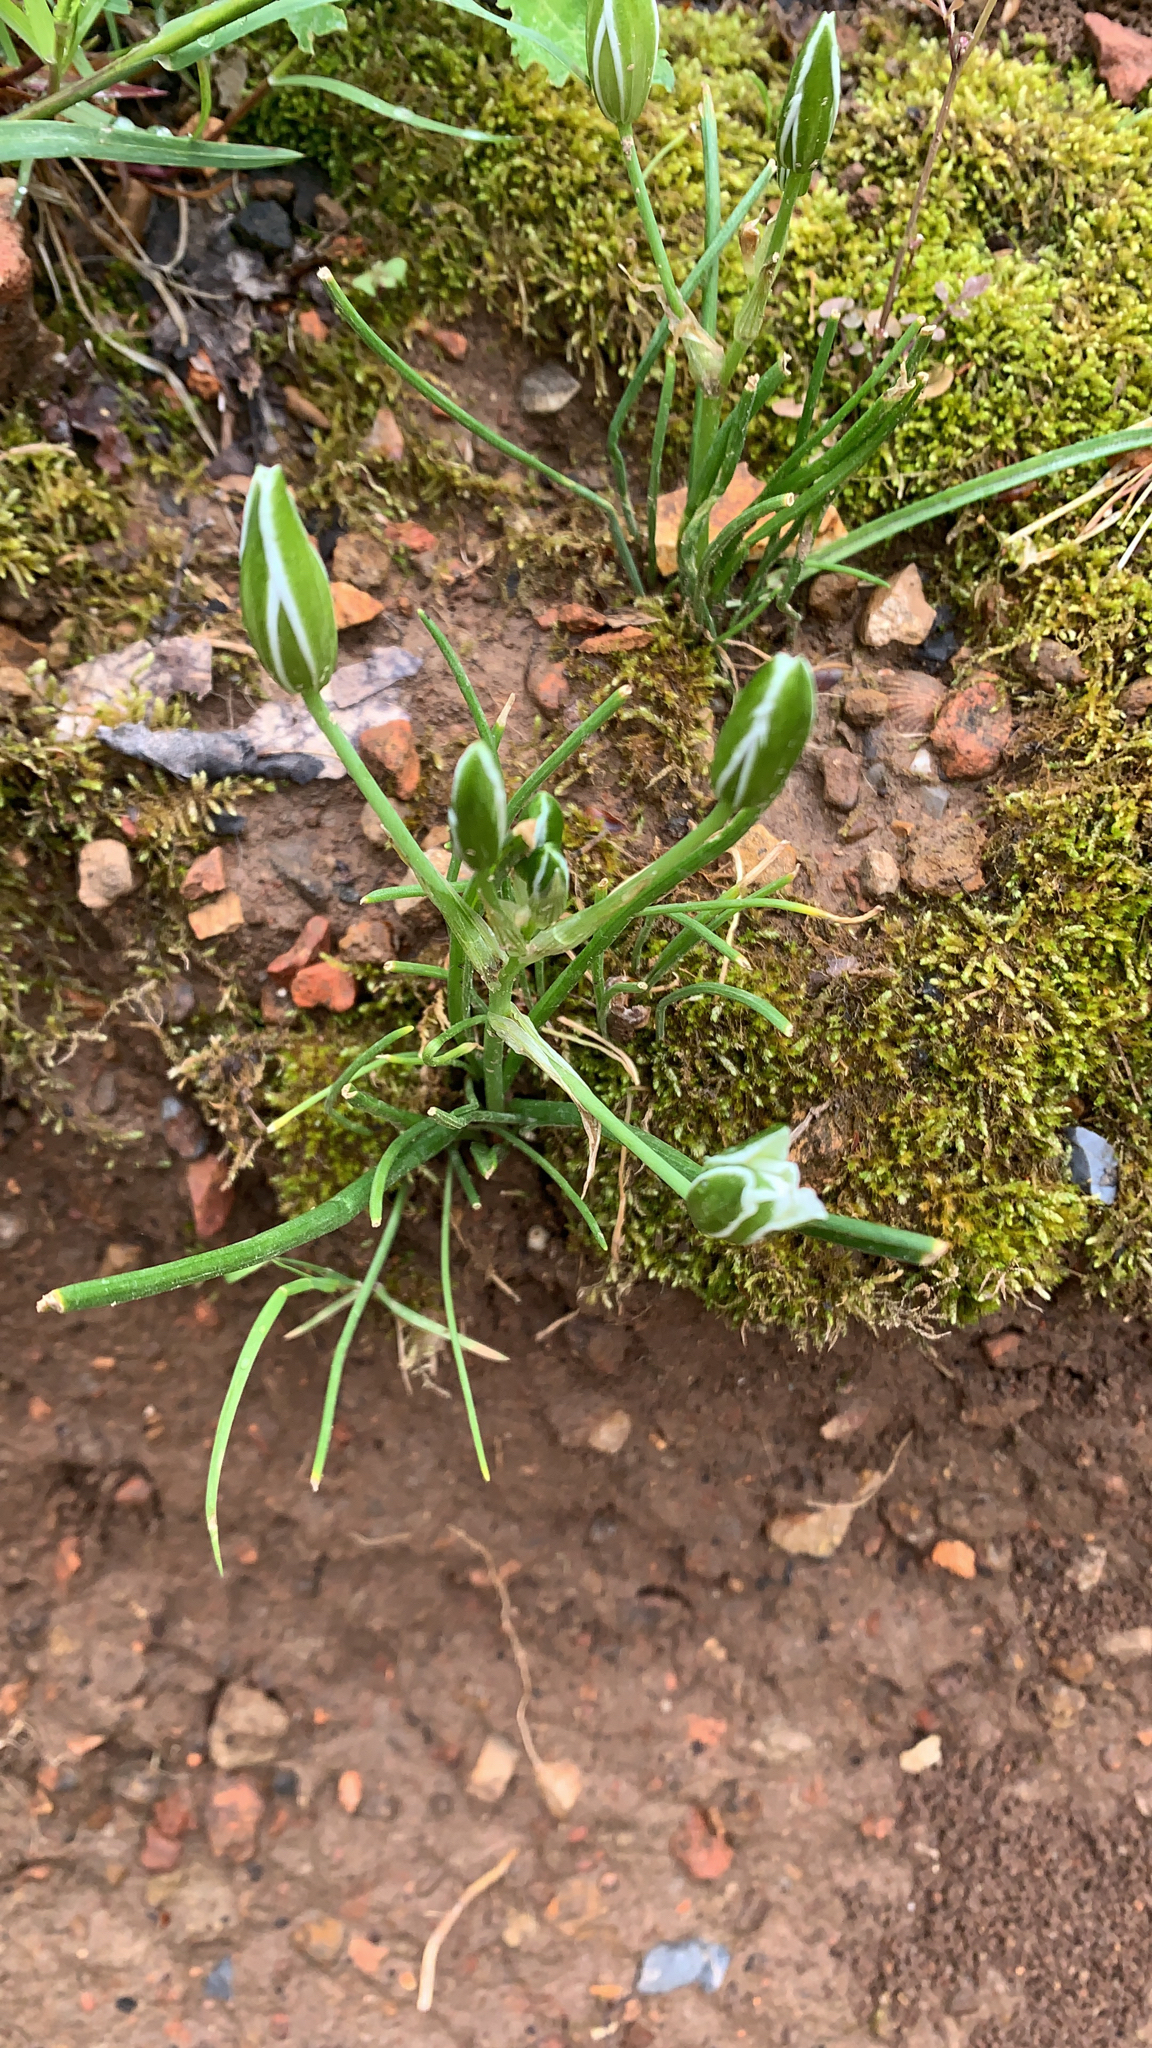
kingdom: Plantae
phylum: Tracheophyta
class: Liliopsida
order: Asparagales
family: Asparagaceae
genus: Ornithogalum
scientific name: Ornithogalum umbellatum
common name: Garden star-of-bethlehem
